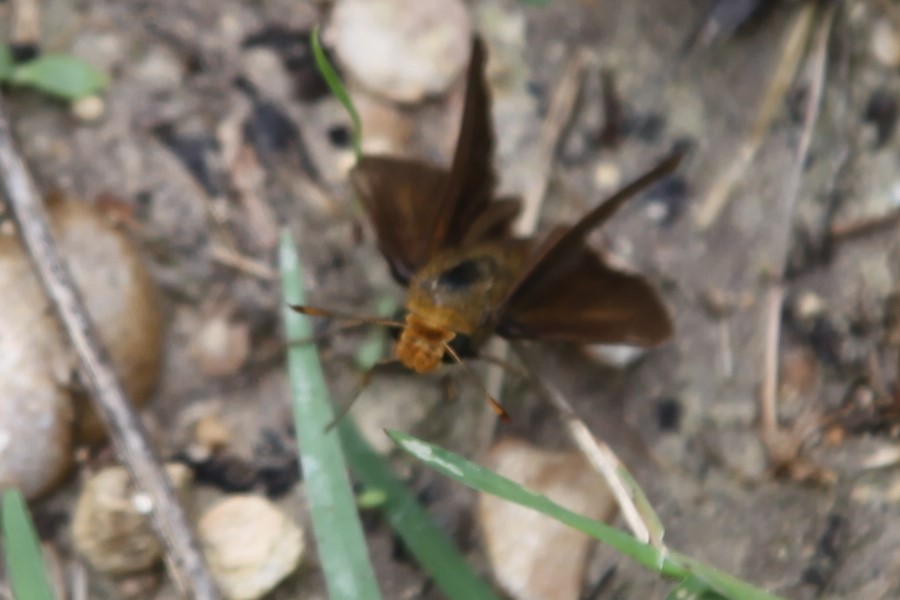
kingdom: Animalia
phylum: Arthropoda
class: Insecta
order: Lepidoptera
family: Hesperiidae
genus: Euphyes
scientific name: Euphyes vestris
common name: Dun skipper
